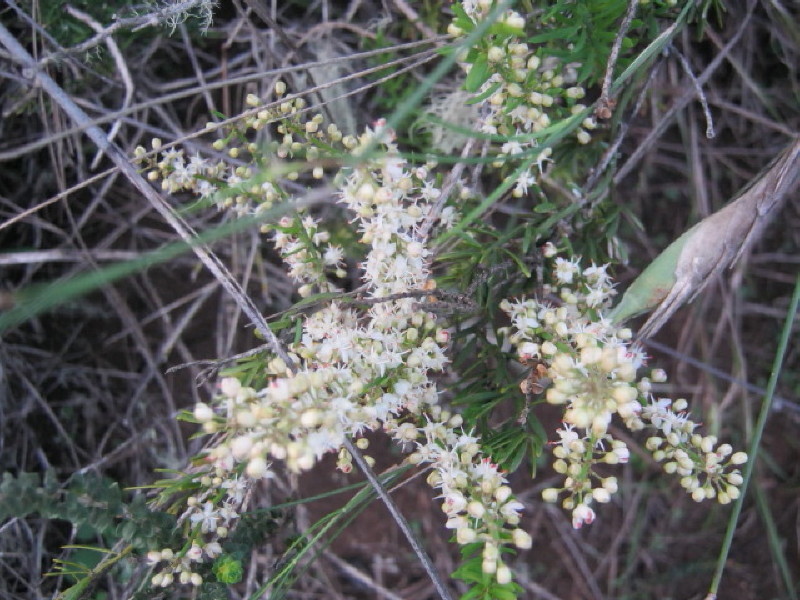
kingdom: Plantae
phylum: Tracheophyta
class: Liliopsida
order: Asparagales
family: Asparagaceae
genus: Asparagus
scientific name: Asparagus aethiopicus
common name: Sprenger's asparagus fern
